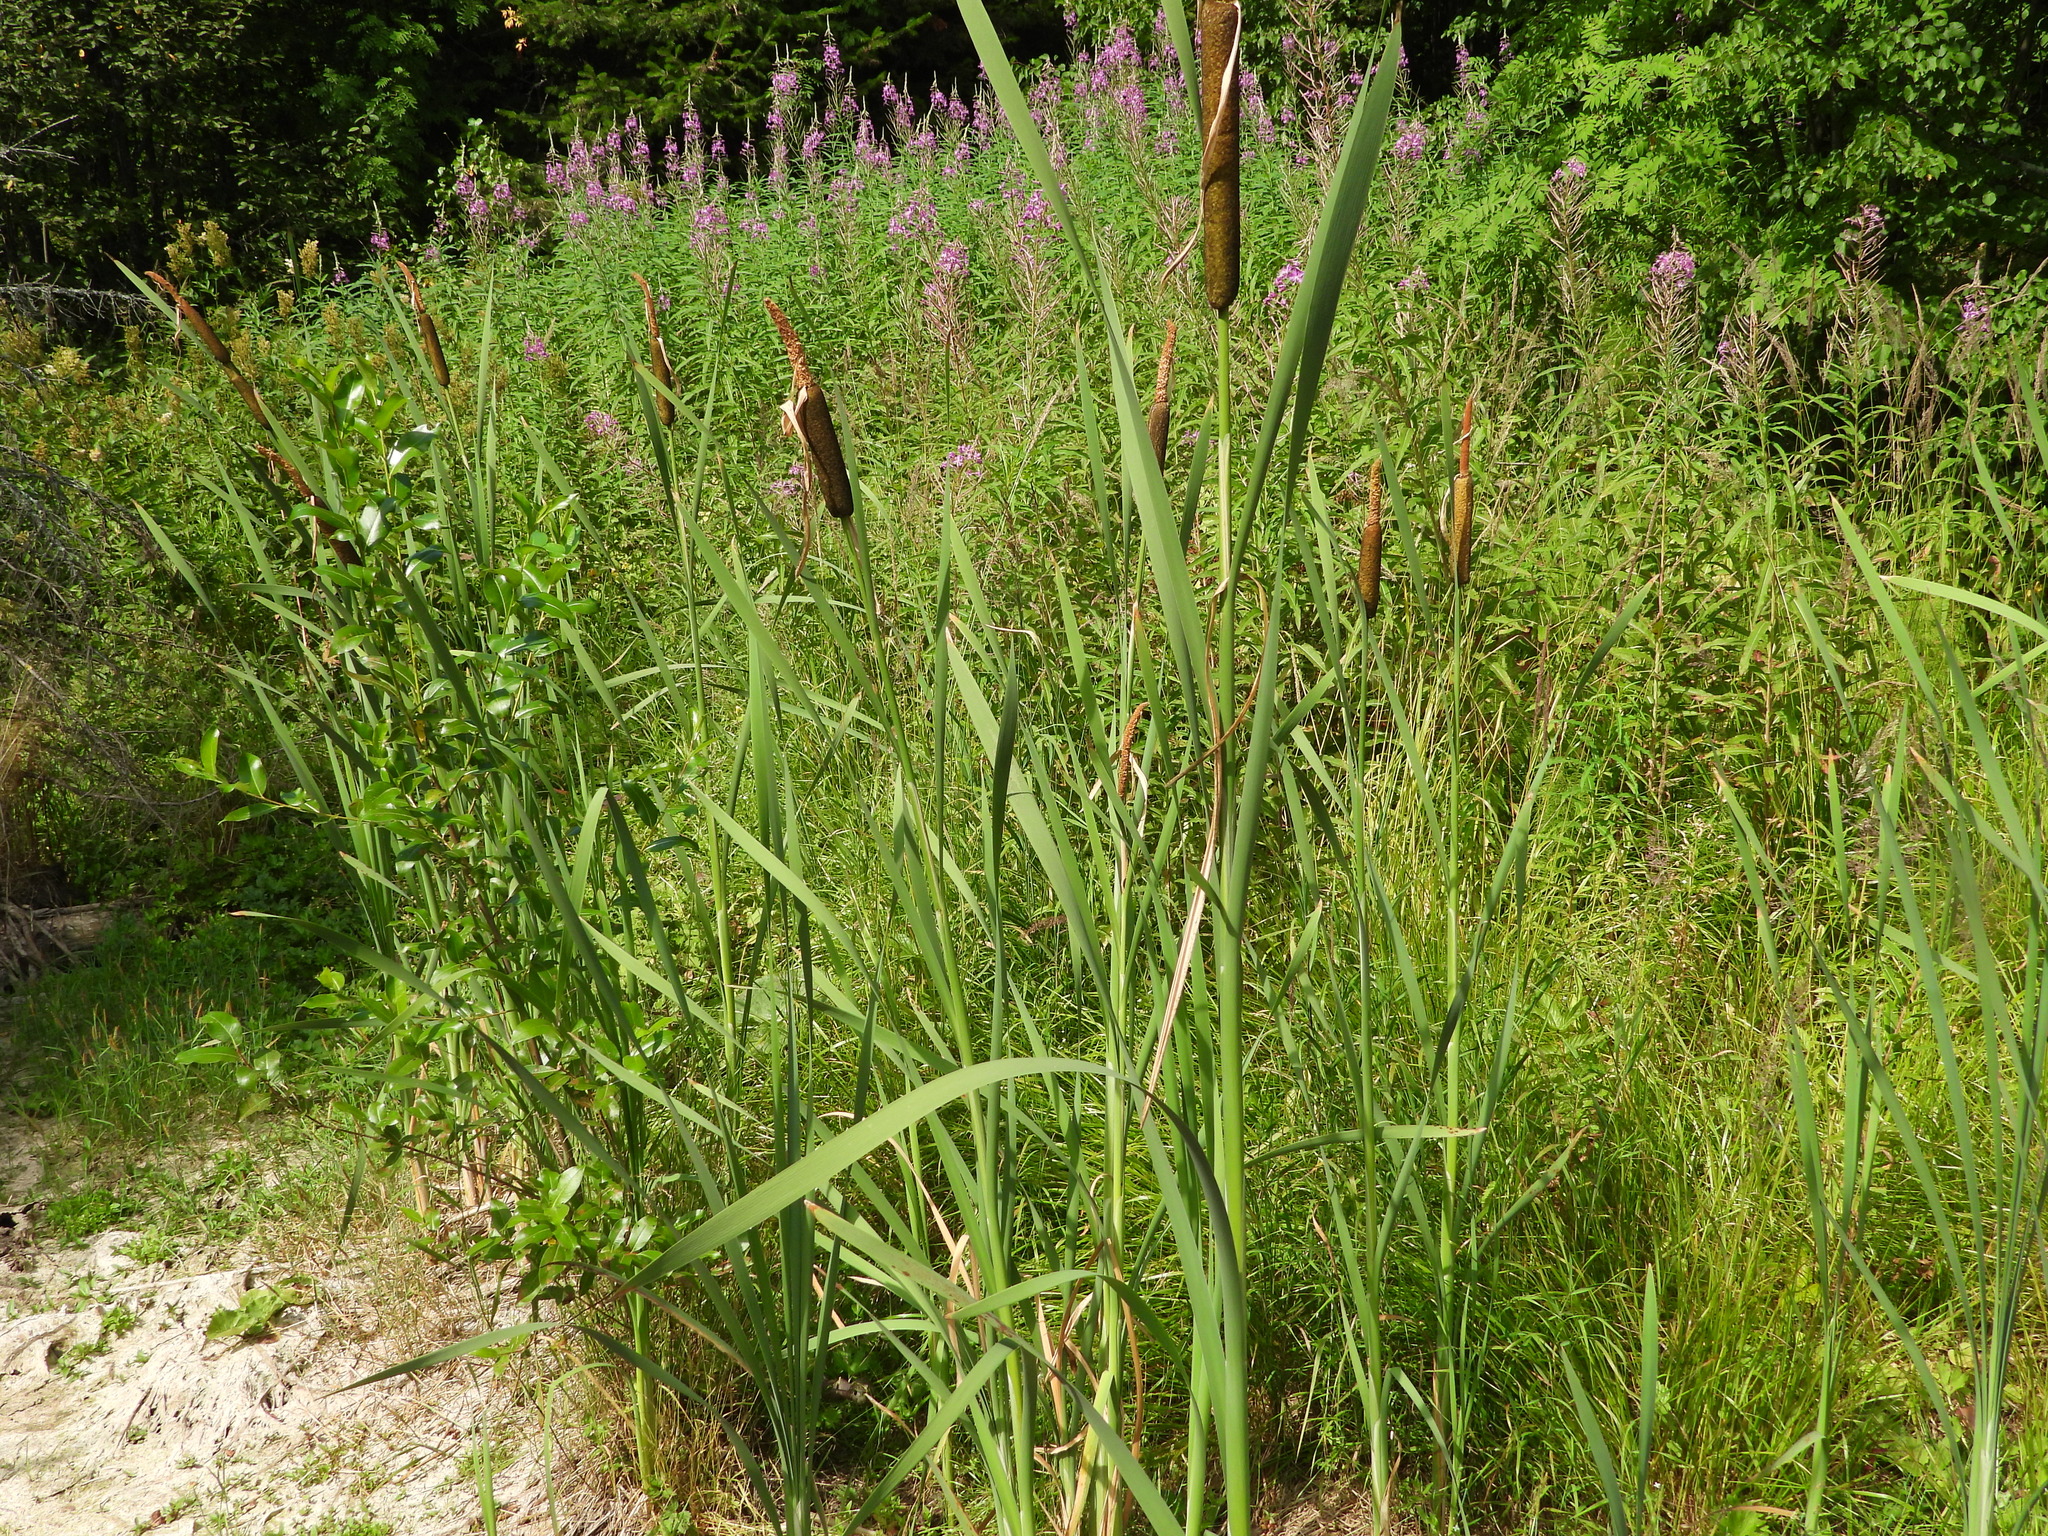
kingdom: Plantae
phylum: Tracheophyta
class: Liliopsida
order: Poales
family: Typhaceae
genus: Typha
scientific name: Typha latifolia
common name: Broadleaf cattail
